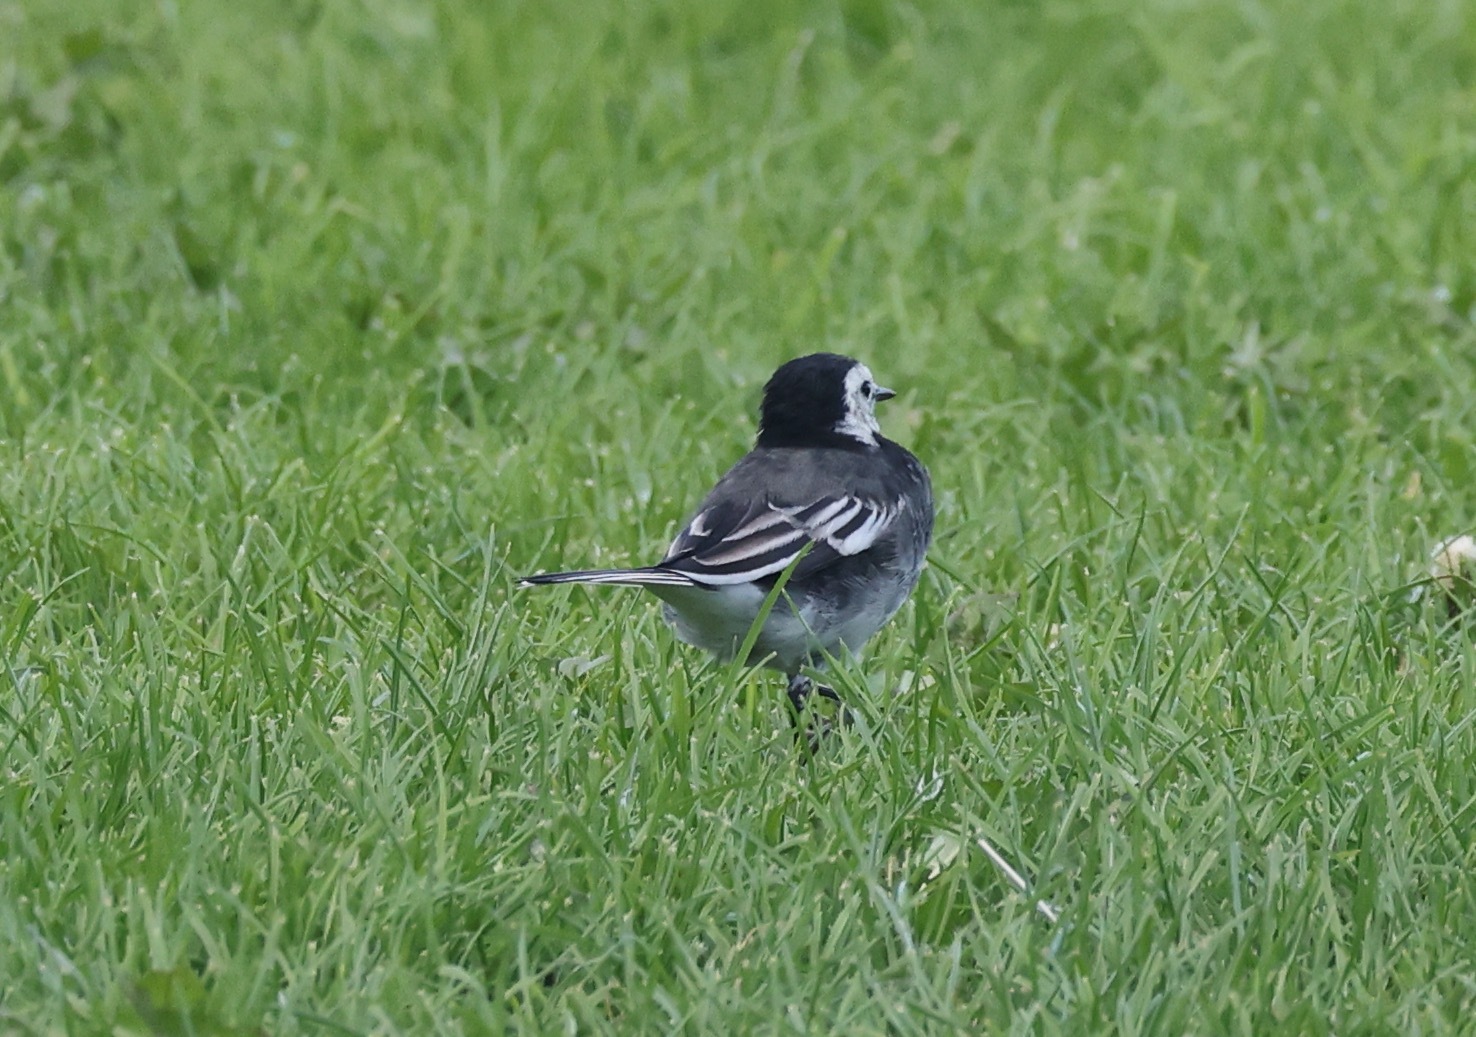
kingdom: Animalia
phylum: Chordata
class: Aves
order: Passeriformes
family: Motacillidae
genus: Motacilla
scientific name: Motacilla alba
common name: White wagtail
